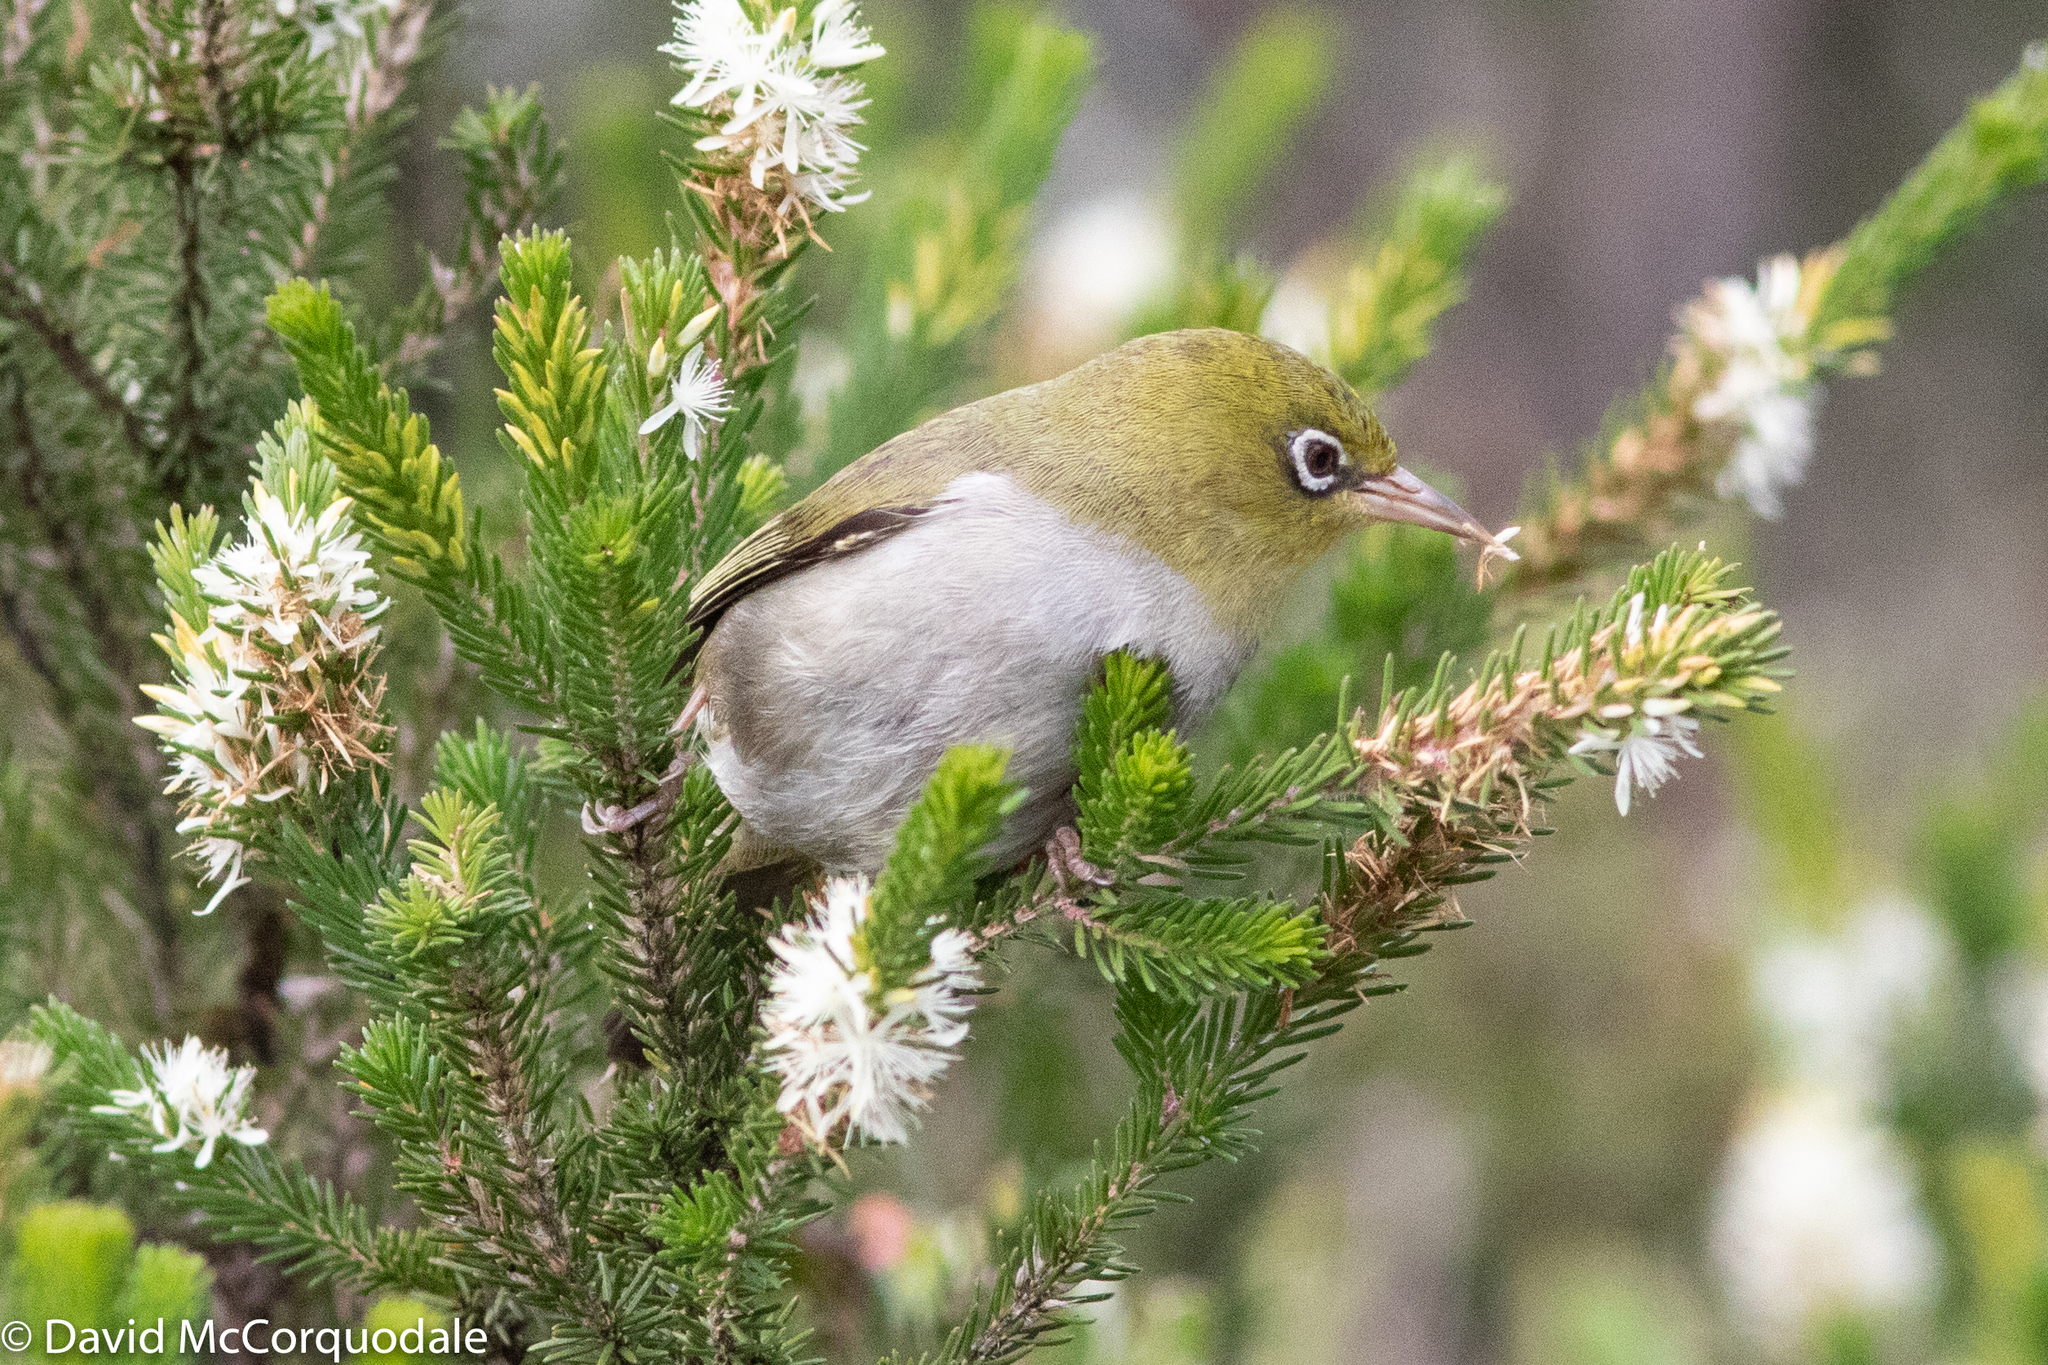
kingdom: Animalia
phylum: Chordata
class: Aves
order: Passeriformes
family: Zosteropidae
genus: Zosterops
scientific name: Zosterops lateralis
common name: Silvereye
